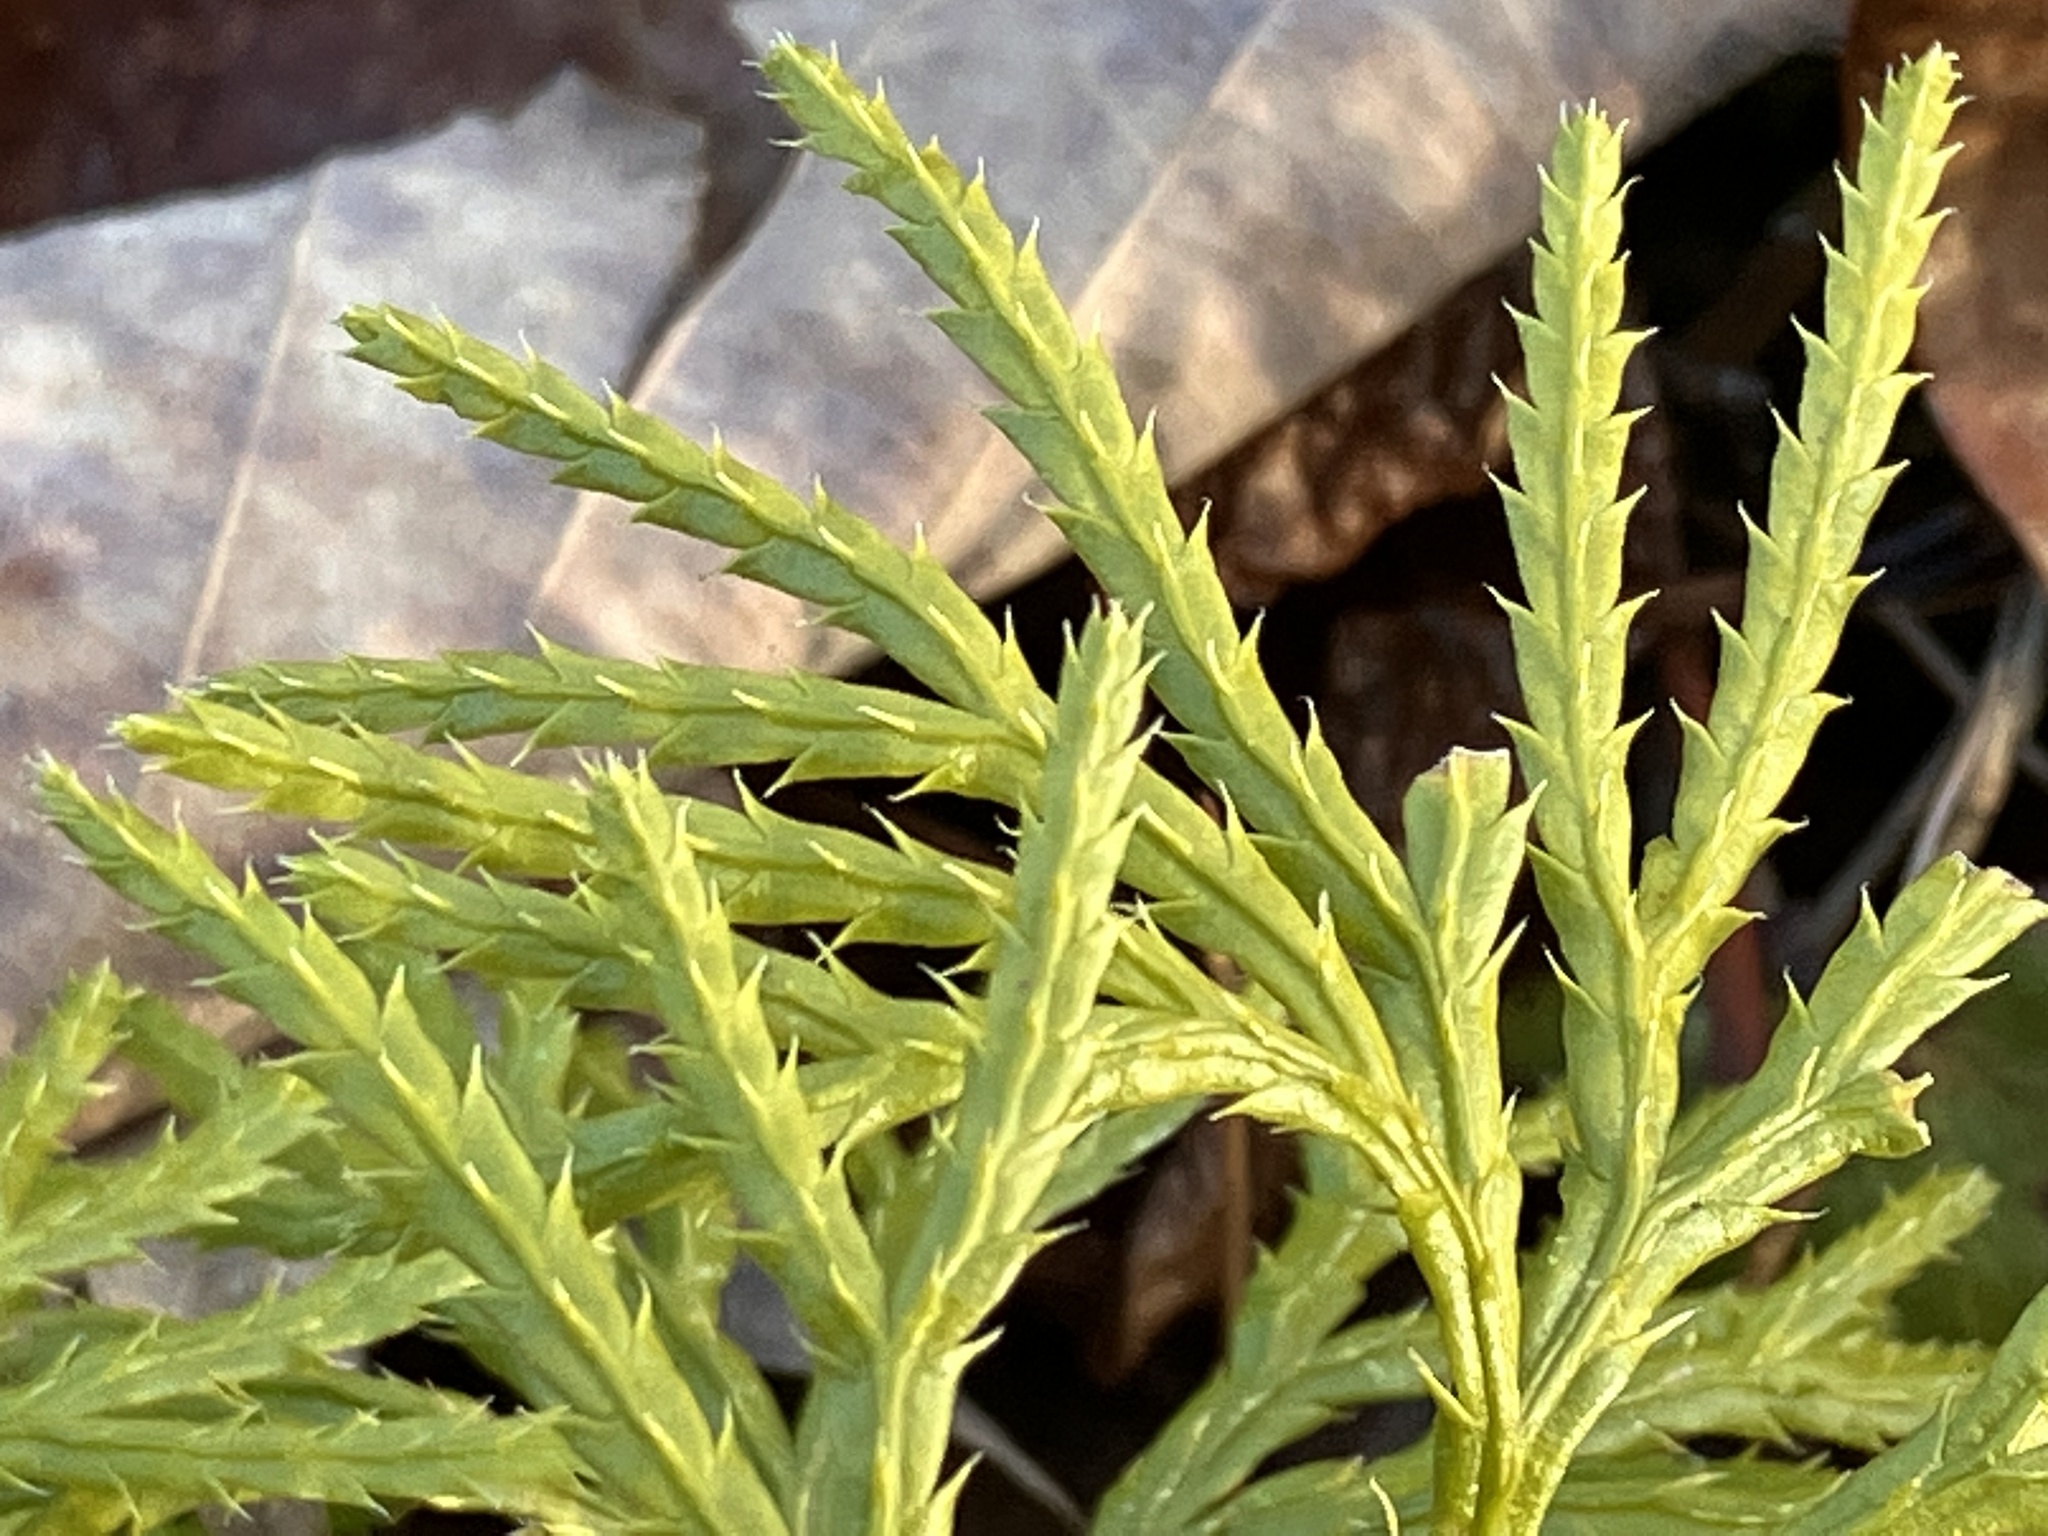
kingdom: Plantae
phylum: Tracheophyta
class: Lycopodiopsida
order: Lycopodiales
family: Lycopodiaceae
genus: Diphasiastrum
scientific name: Diphasiastrum digitatum
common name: Southern running-pine
